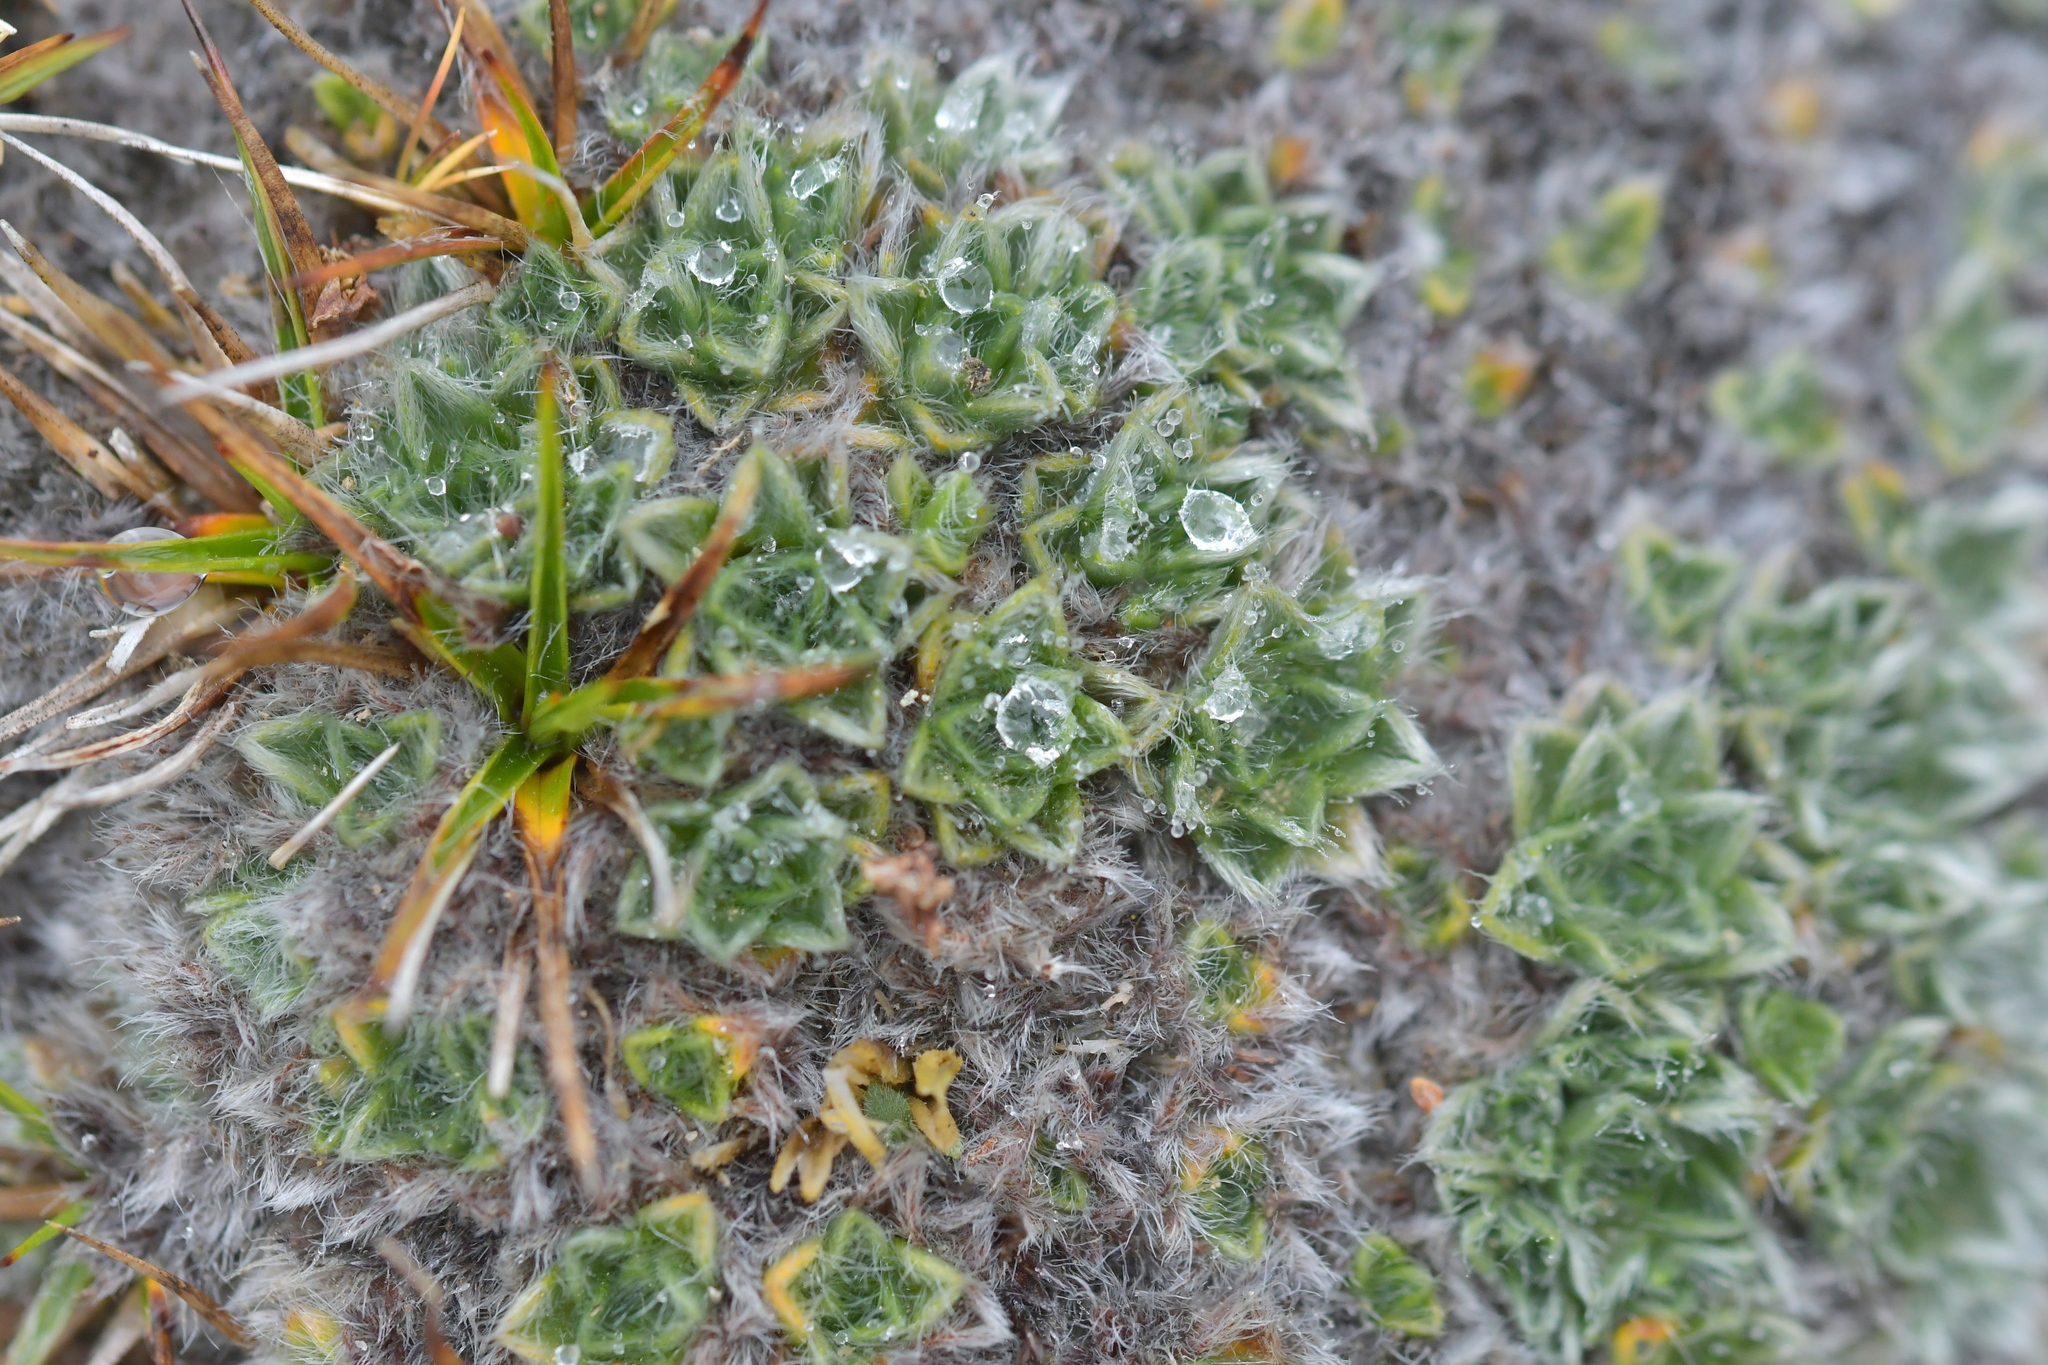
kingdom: Plantae
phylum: Tracheophyta
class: Magnoliopsida
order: Boraginales
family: Boraginaceae
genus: Myosotis
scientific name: Myosotis pulvinaris
